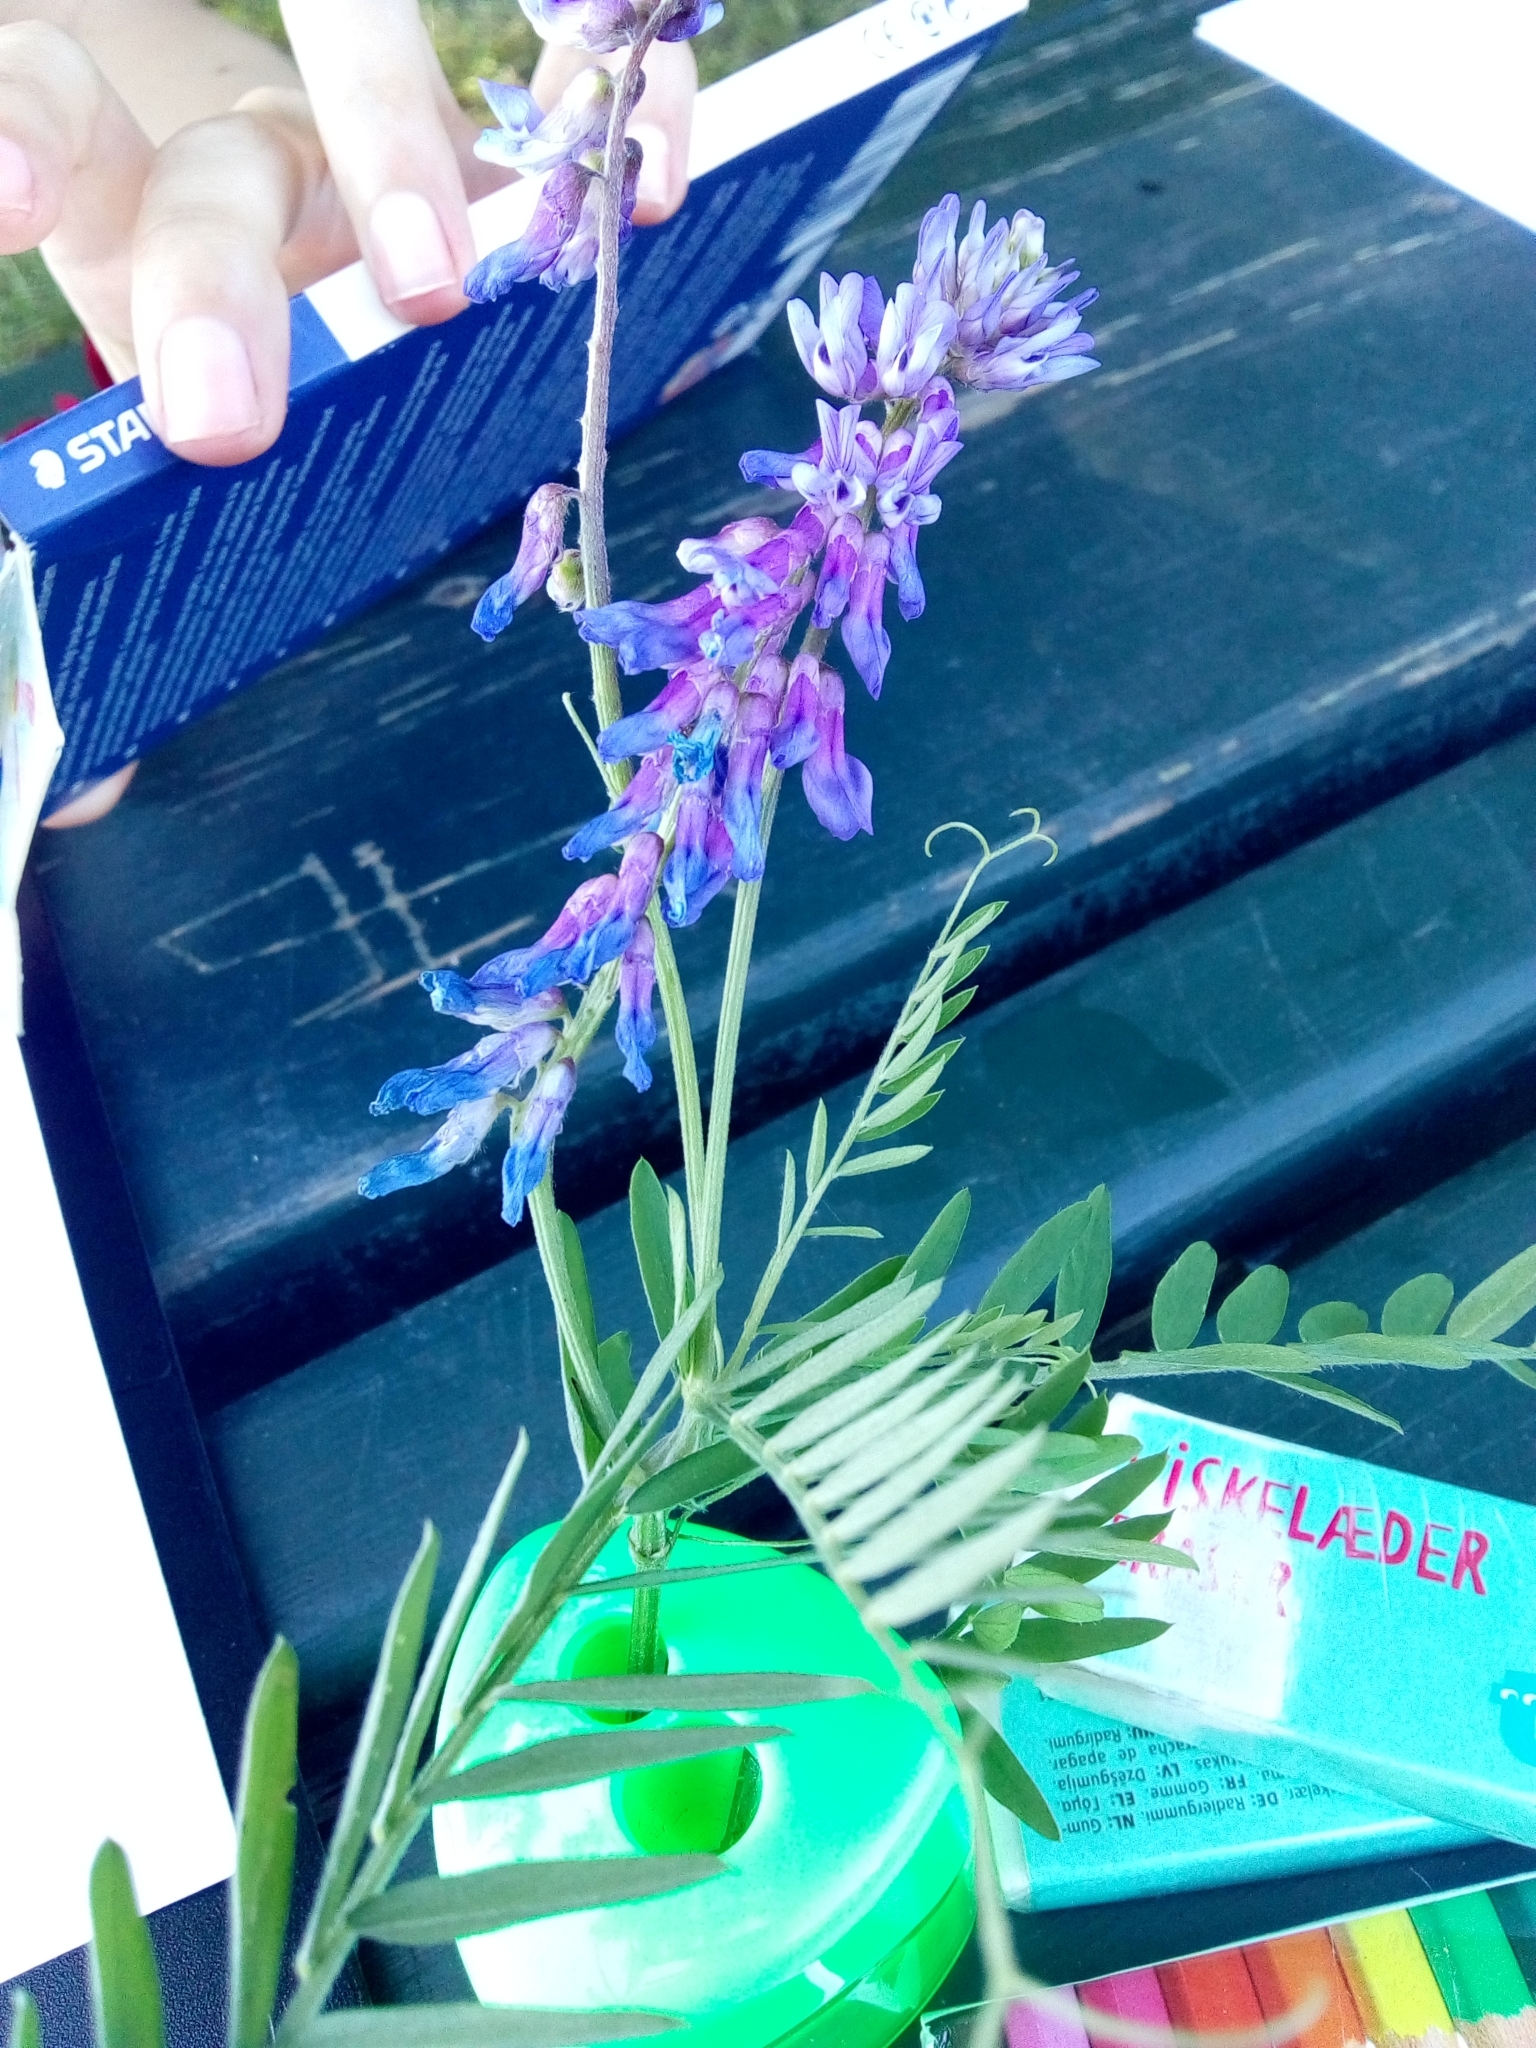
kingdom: Plantae
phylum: Tracheophyta
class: Magnoliopsida
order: Fabales
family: Fabaceae
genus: Vicia
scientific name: Vicia cracca
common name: Bird vetch
